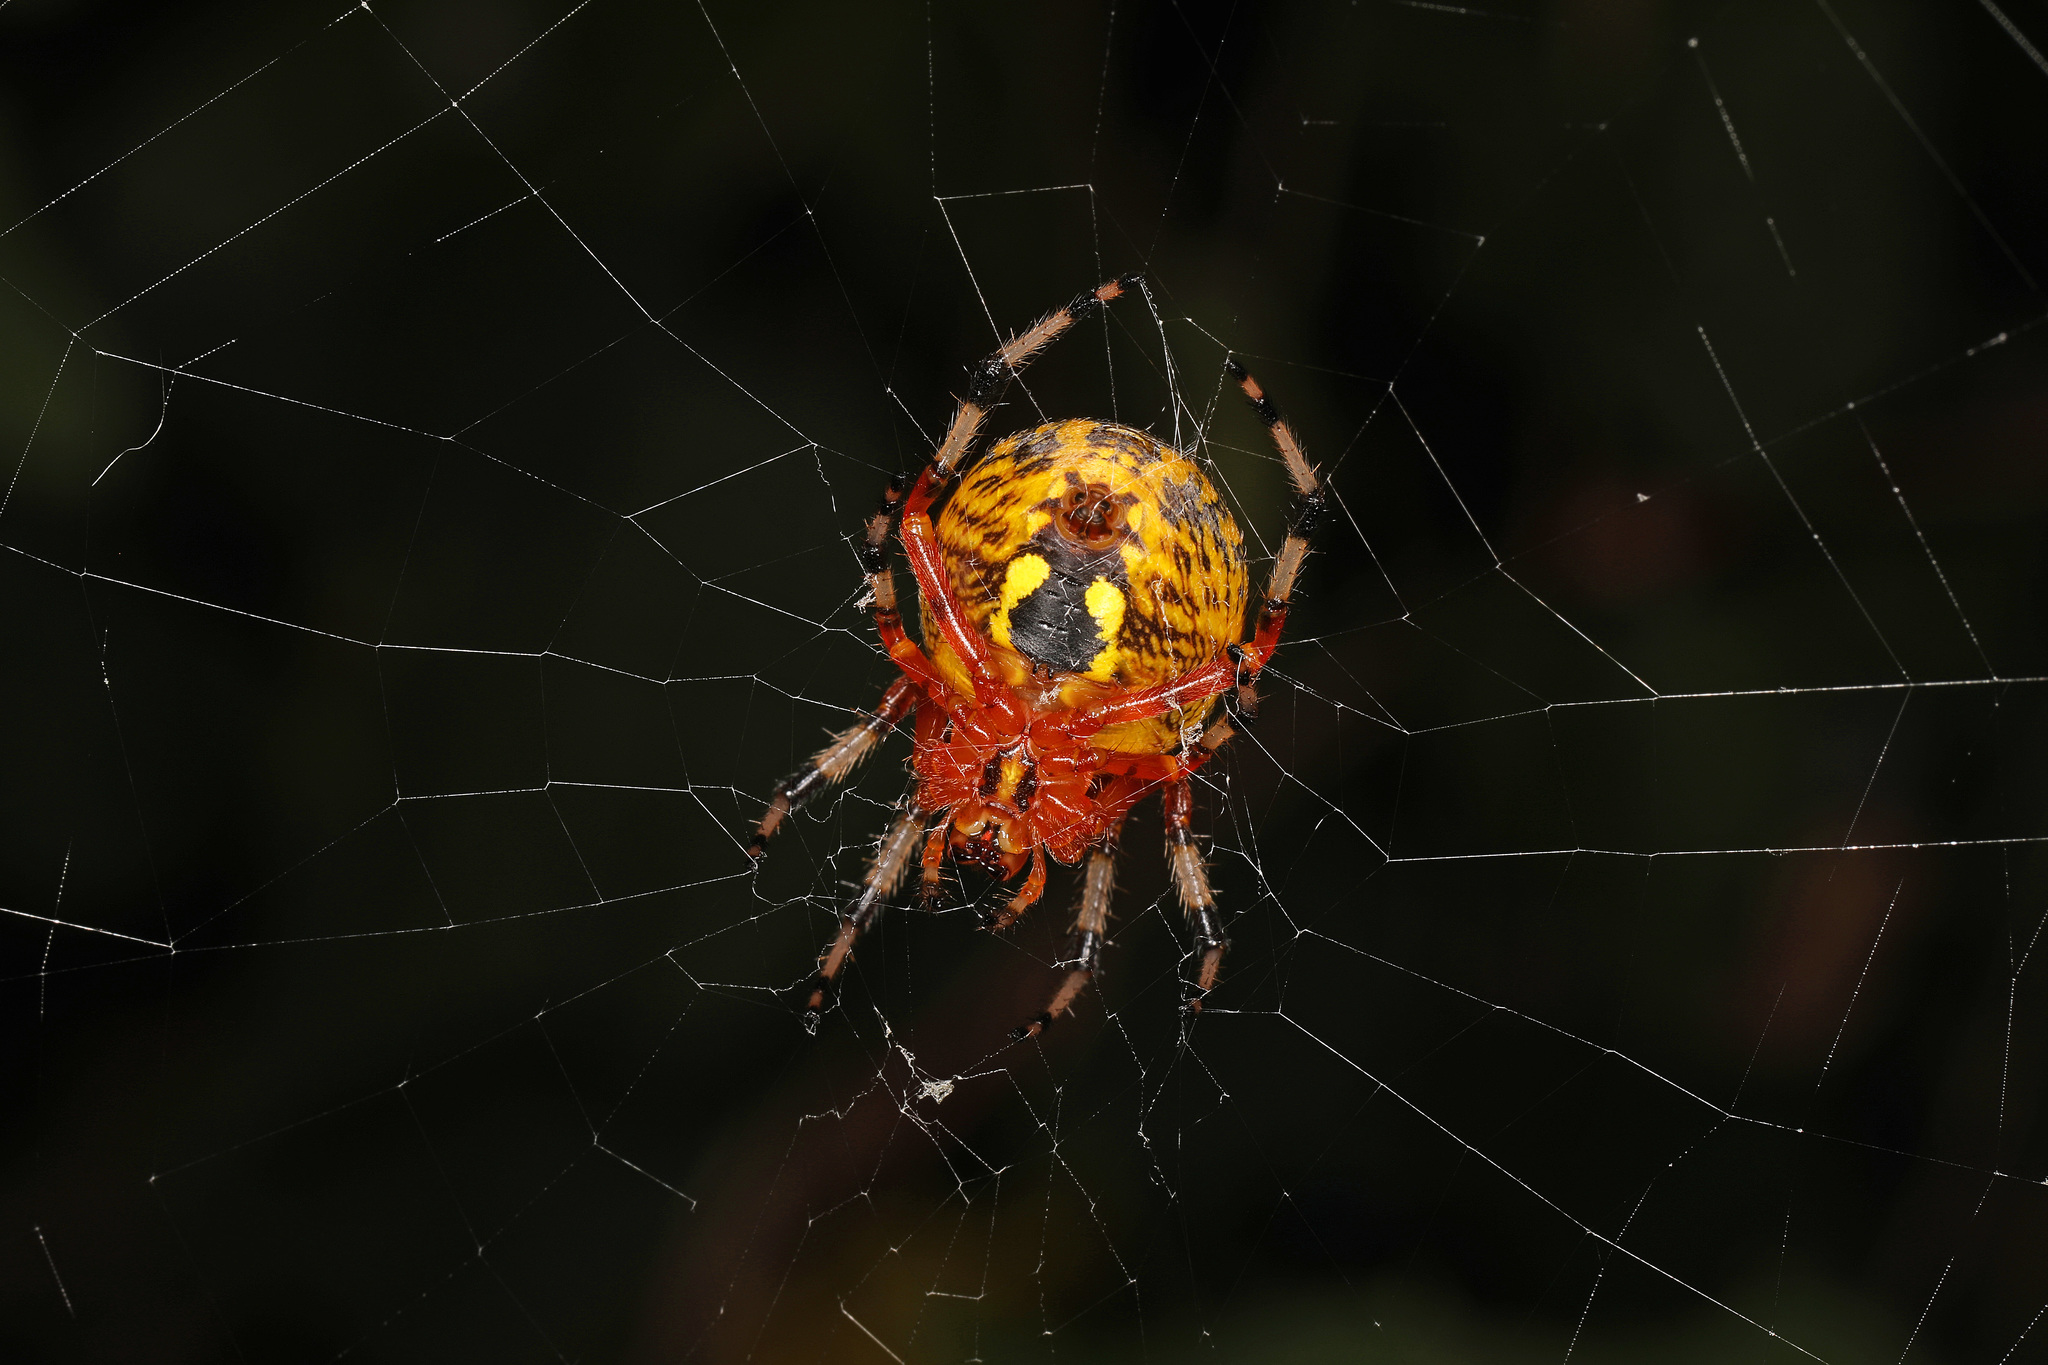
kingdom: Animalia
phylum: Arthropoda
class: Arachnida
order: Araneae
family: Araneidae
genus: Araneus
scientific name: Araneus marmoreus
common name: Marbled orbweaver
